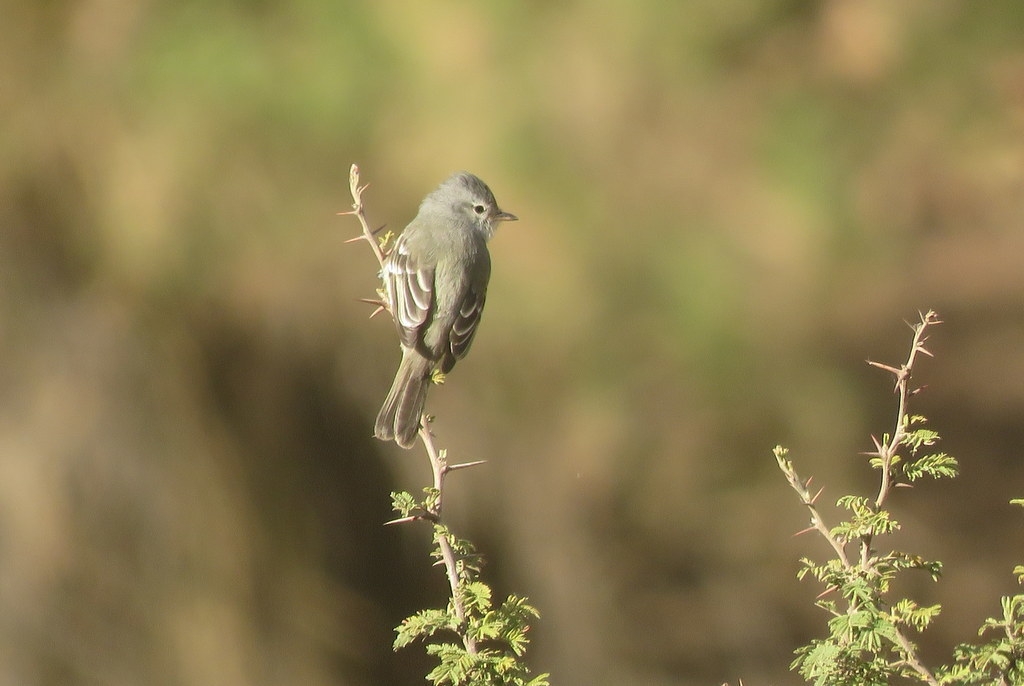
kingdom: Animalia
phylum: Chordata
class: Aves
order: Passeriformes
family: Tyrannidae
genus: Camptostoma
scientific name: Camptostoma obsoletum
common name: Southern beardless-tyrannulet
